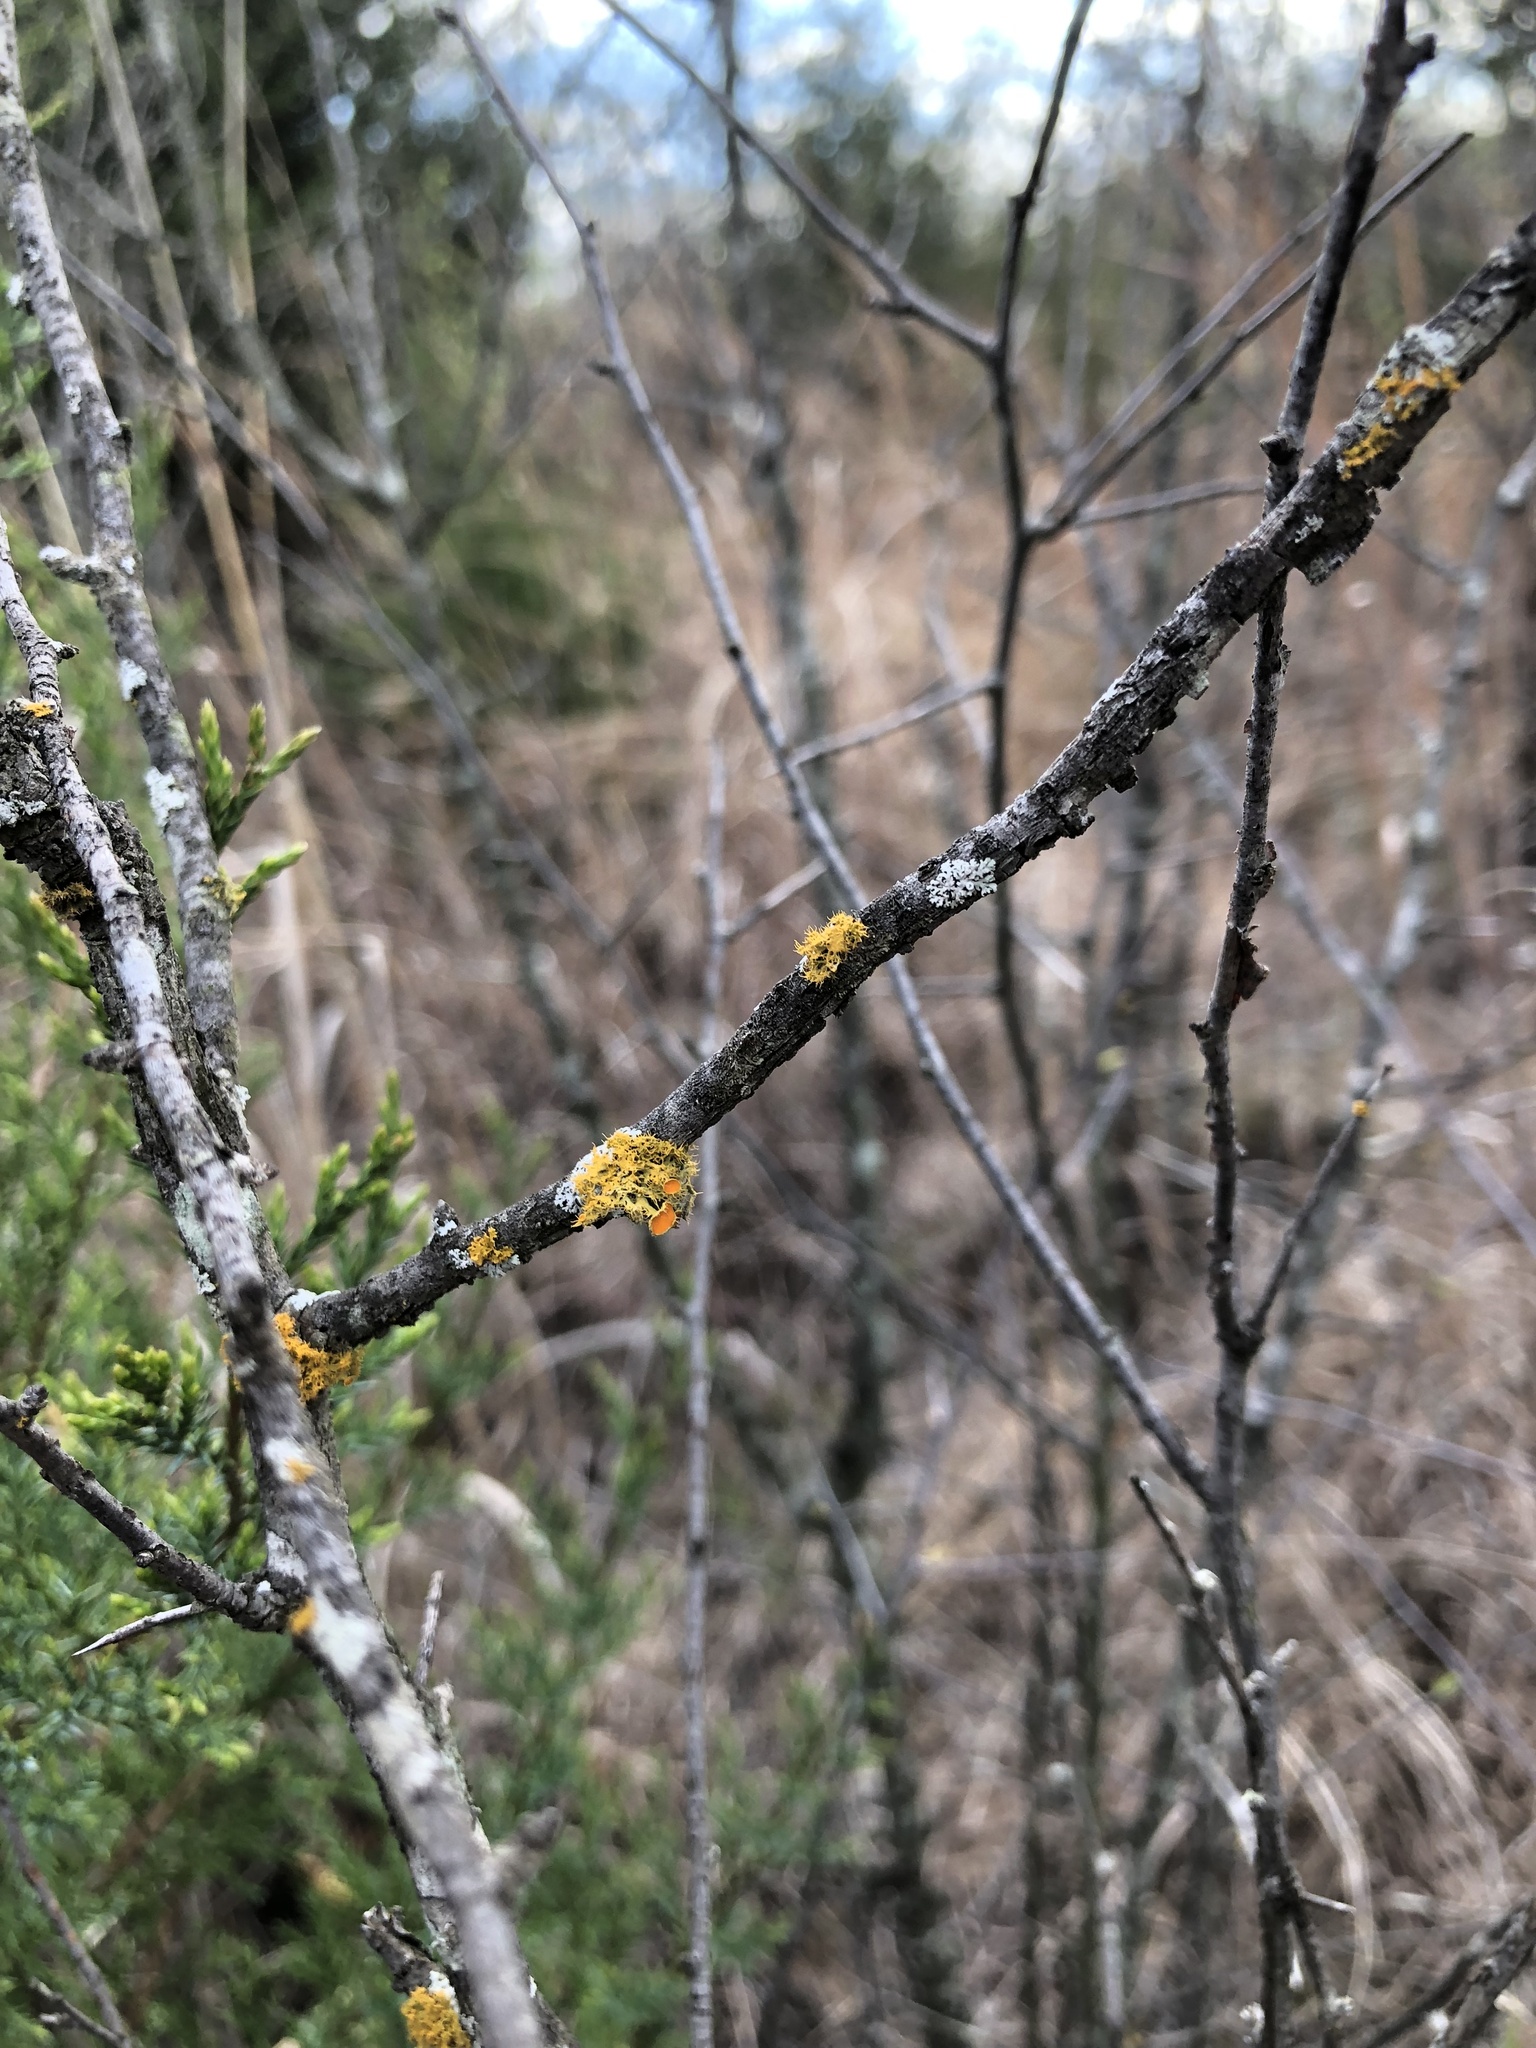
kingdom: Fungi
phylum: Ascomycota
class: Lecanoromycetes
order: Teloschistales
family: Teloschistaceae
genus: Niorma
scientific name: Niorma chrysophthalma
